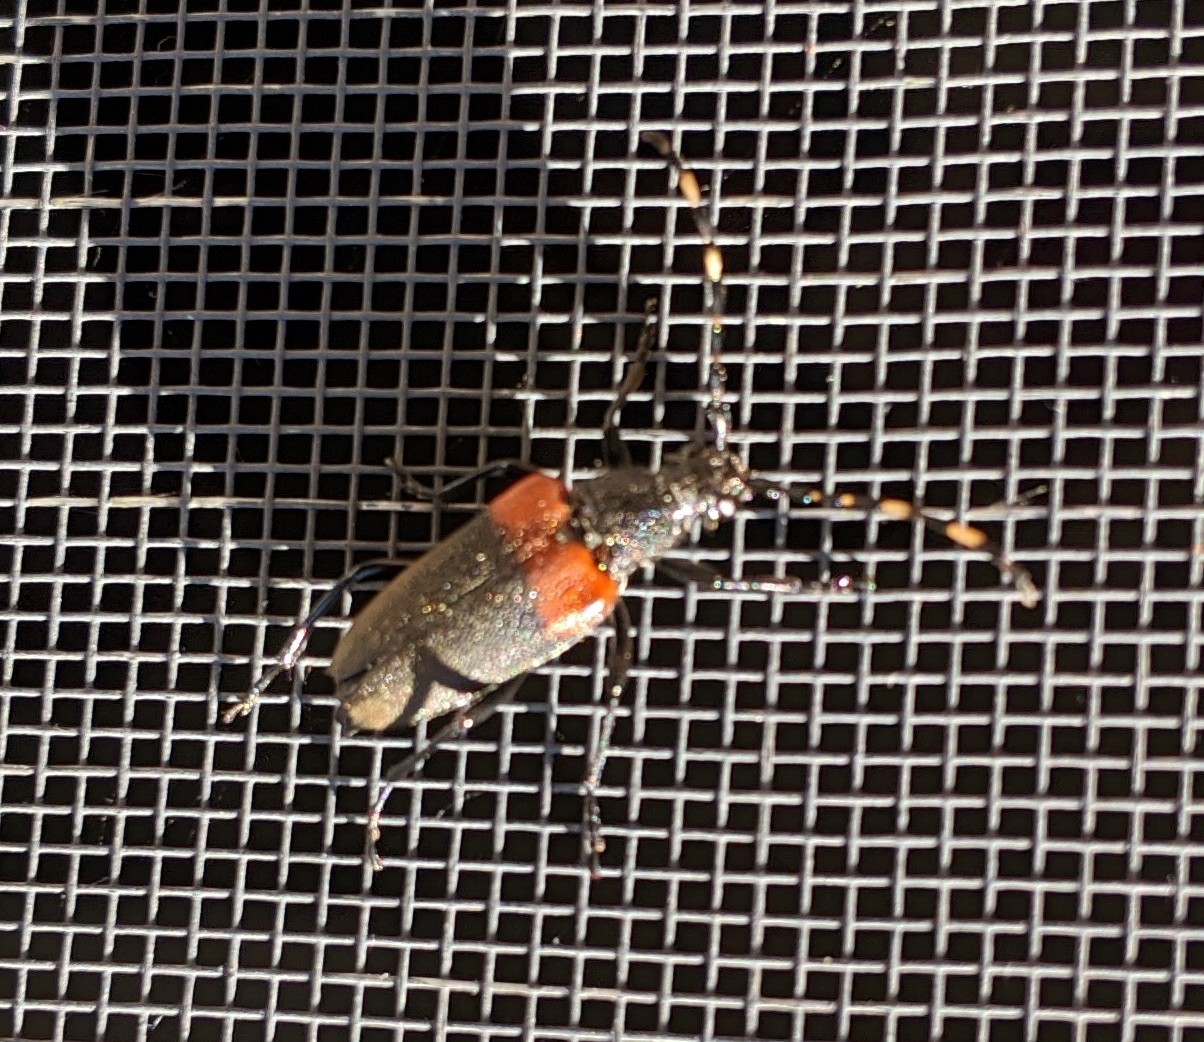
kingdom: Animalia
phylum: Arthropoda
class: Insecta
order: Coleoptera
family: Cerambycidae
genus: Stictoleptura
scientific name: Stictoleptura canadensis
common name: Red-shouldered pine borer
